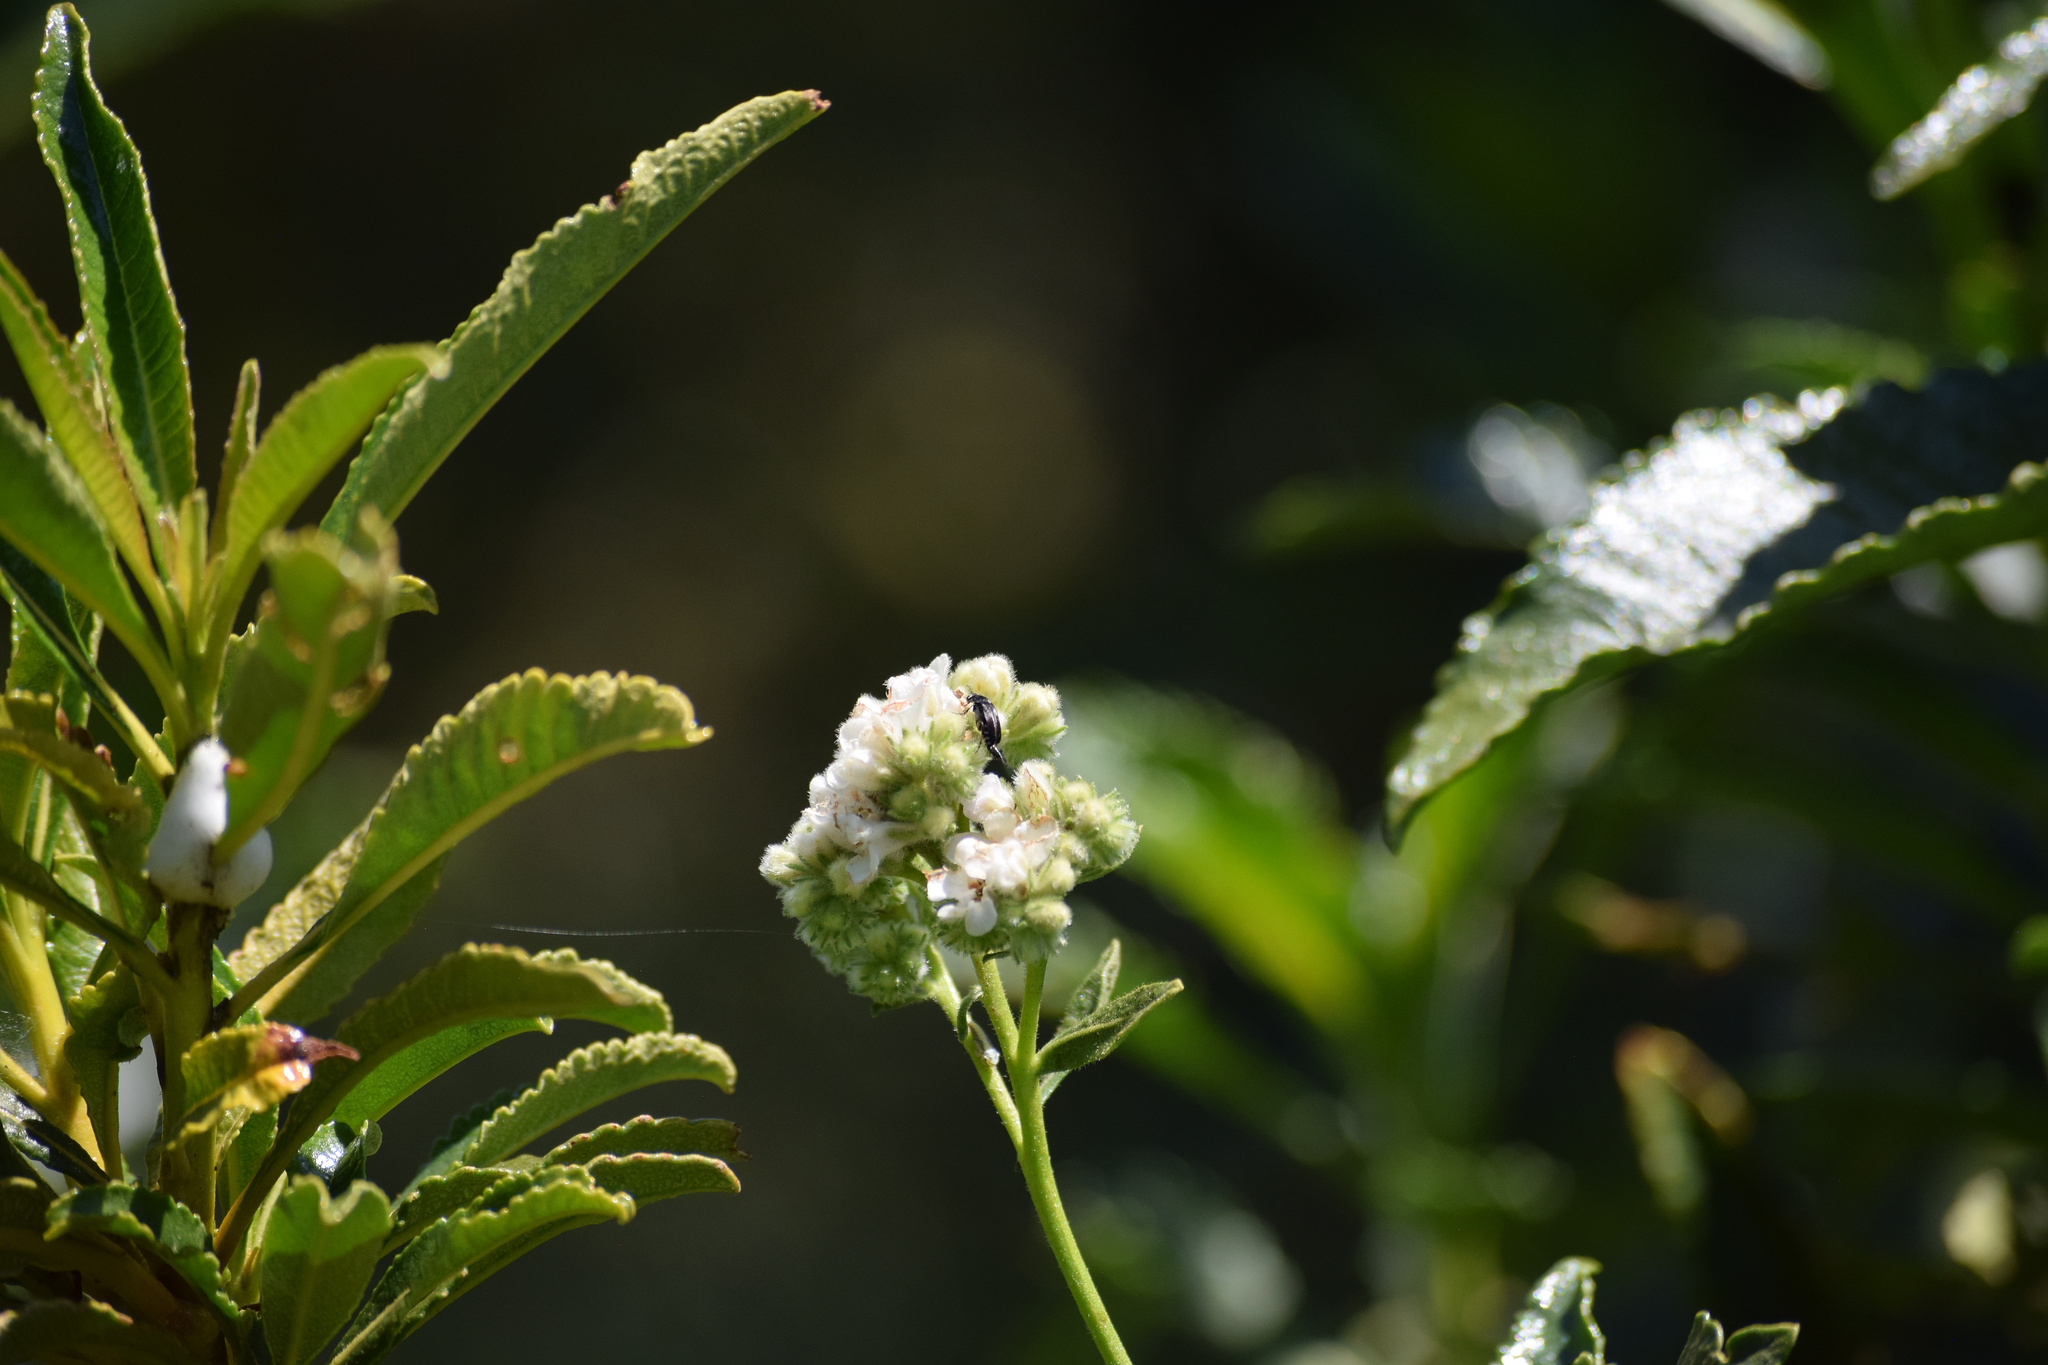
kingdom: Plantae
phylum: Tracheophyta
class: Magnoliopsida
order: Boraginales
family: Namaceae
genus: Eriodictyon
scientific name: Eriodictyon trichocalyx
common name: Hairy yerba-santa
